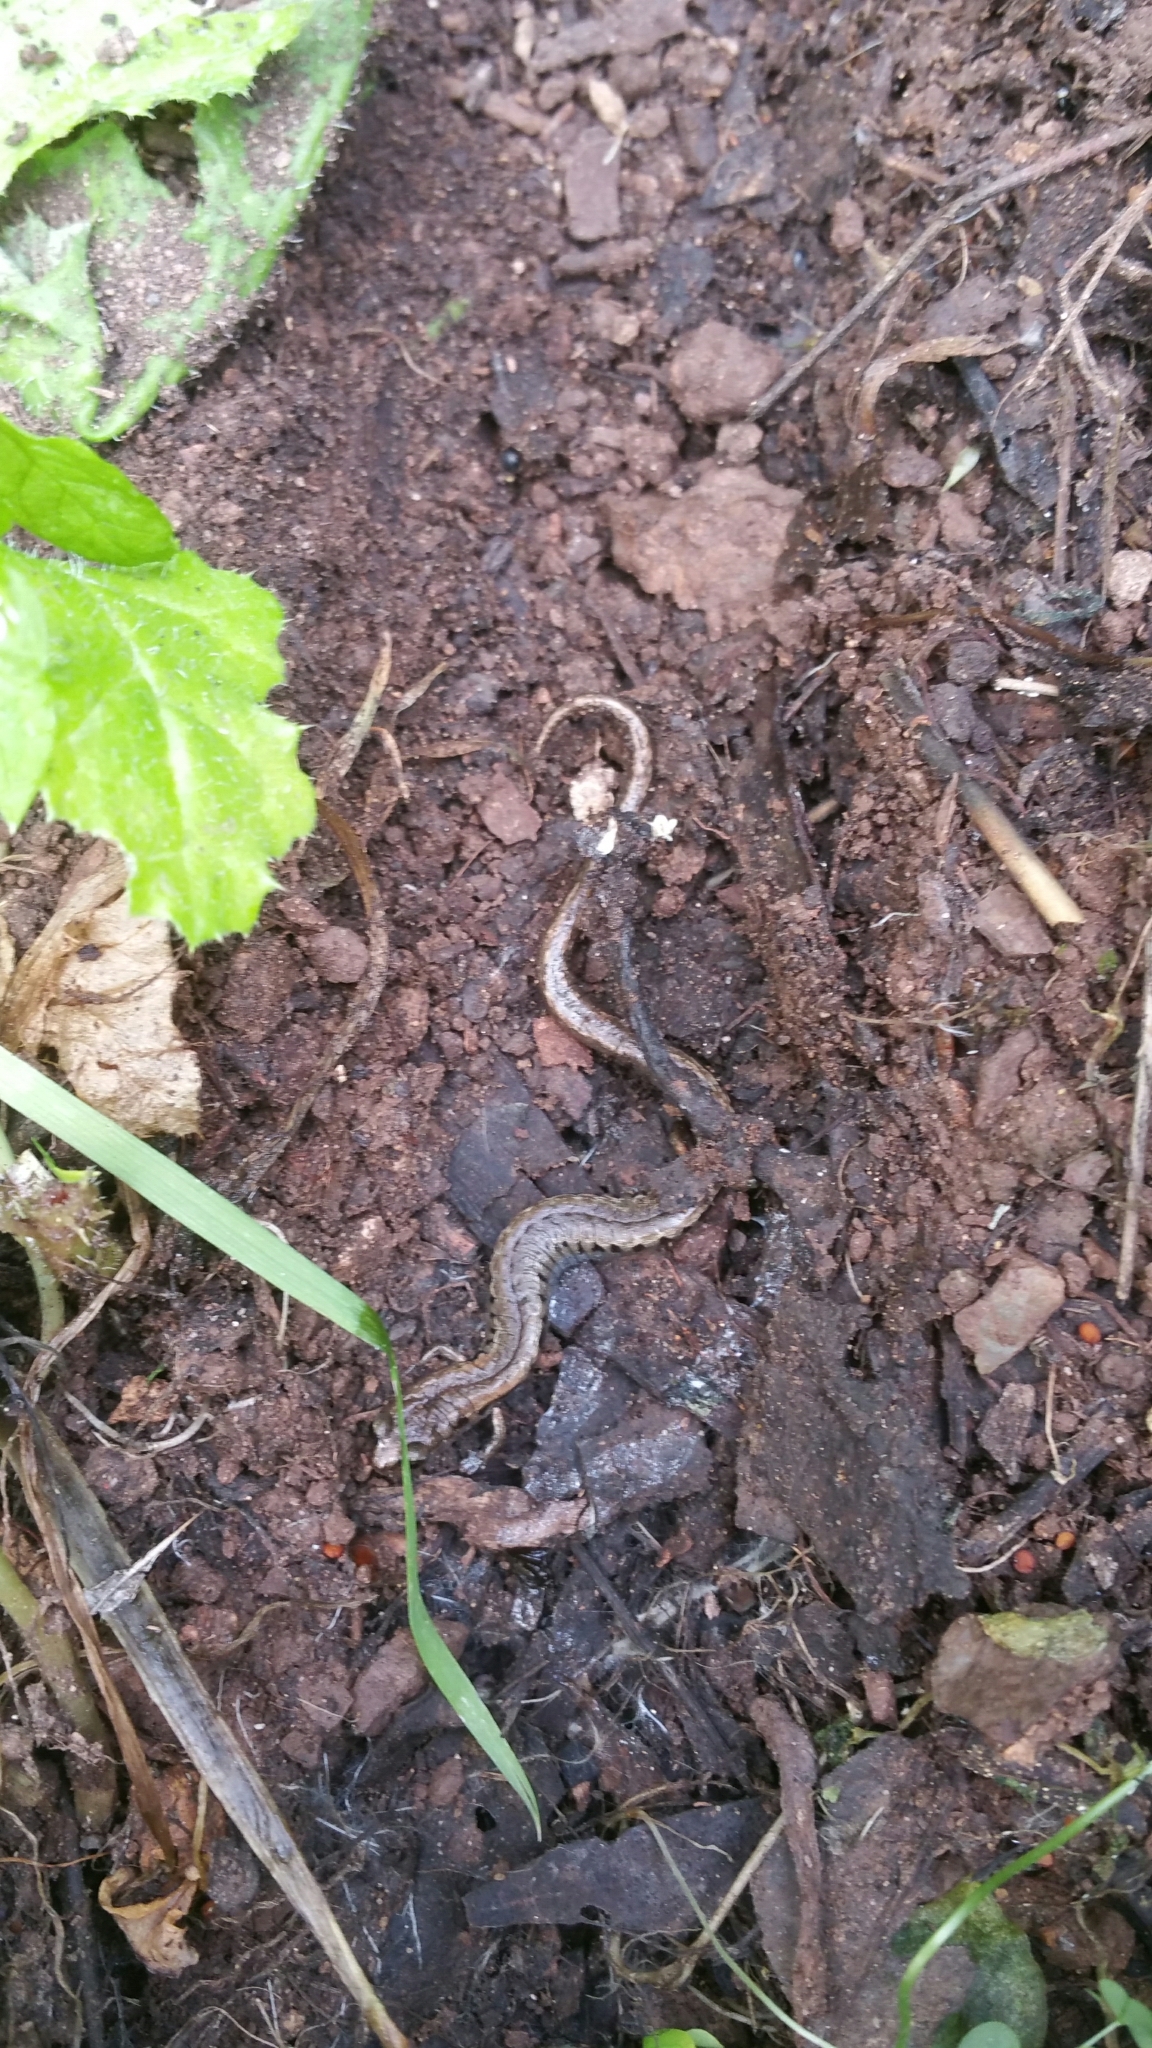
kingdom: Animalia
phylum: Chordata
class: Amphibia
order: Caudata
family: Plethodontidae
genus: Batrachoseps
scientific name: Batrachoseps attenuatus
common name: California slender salamander
